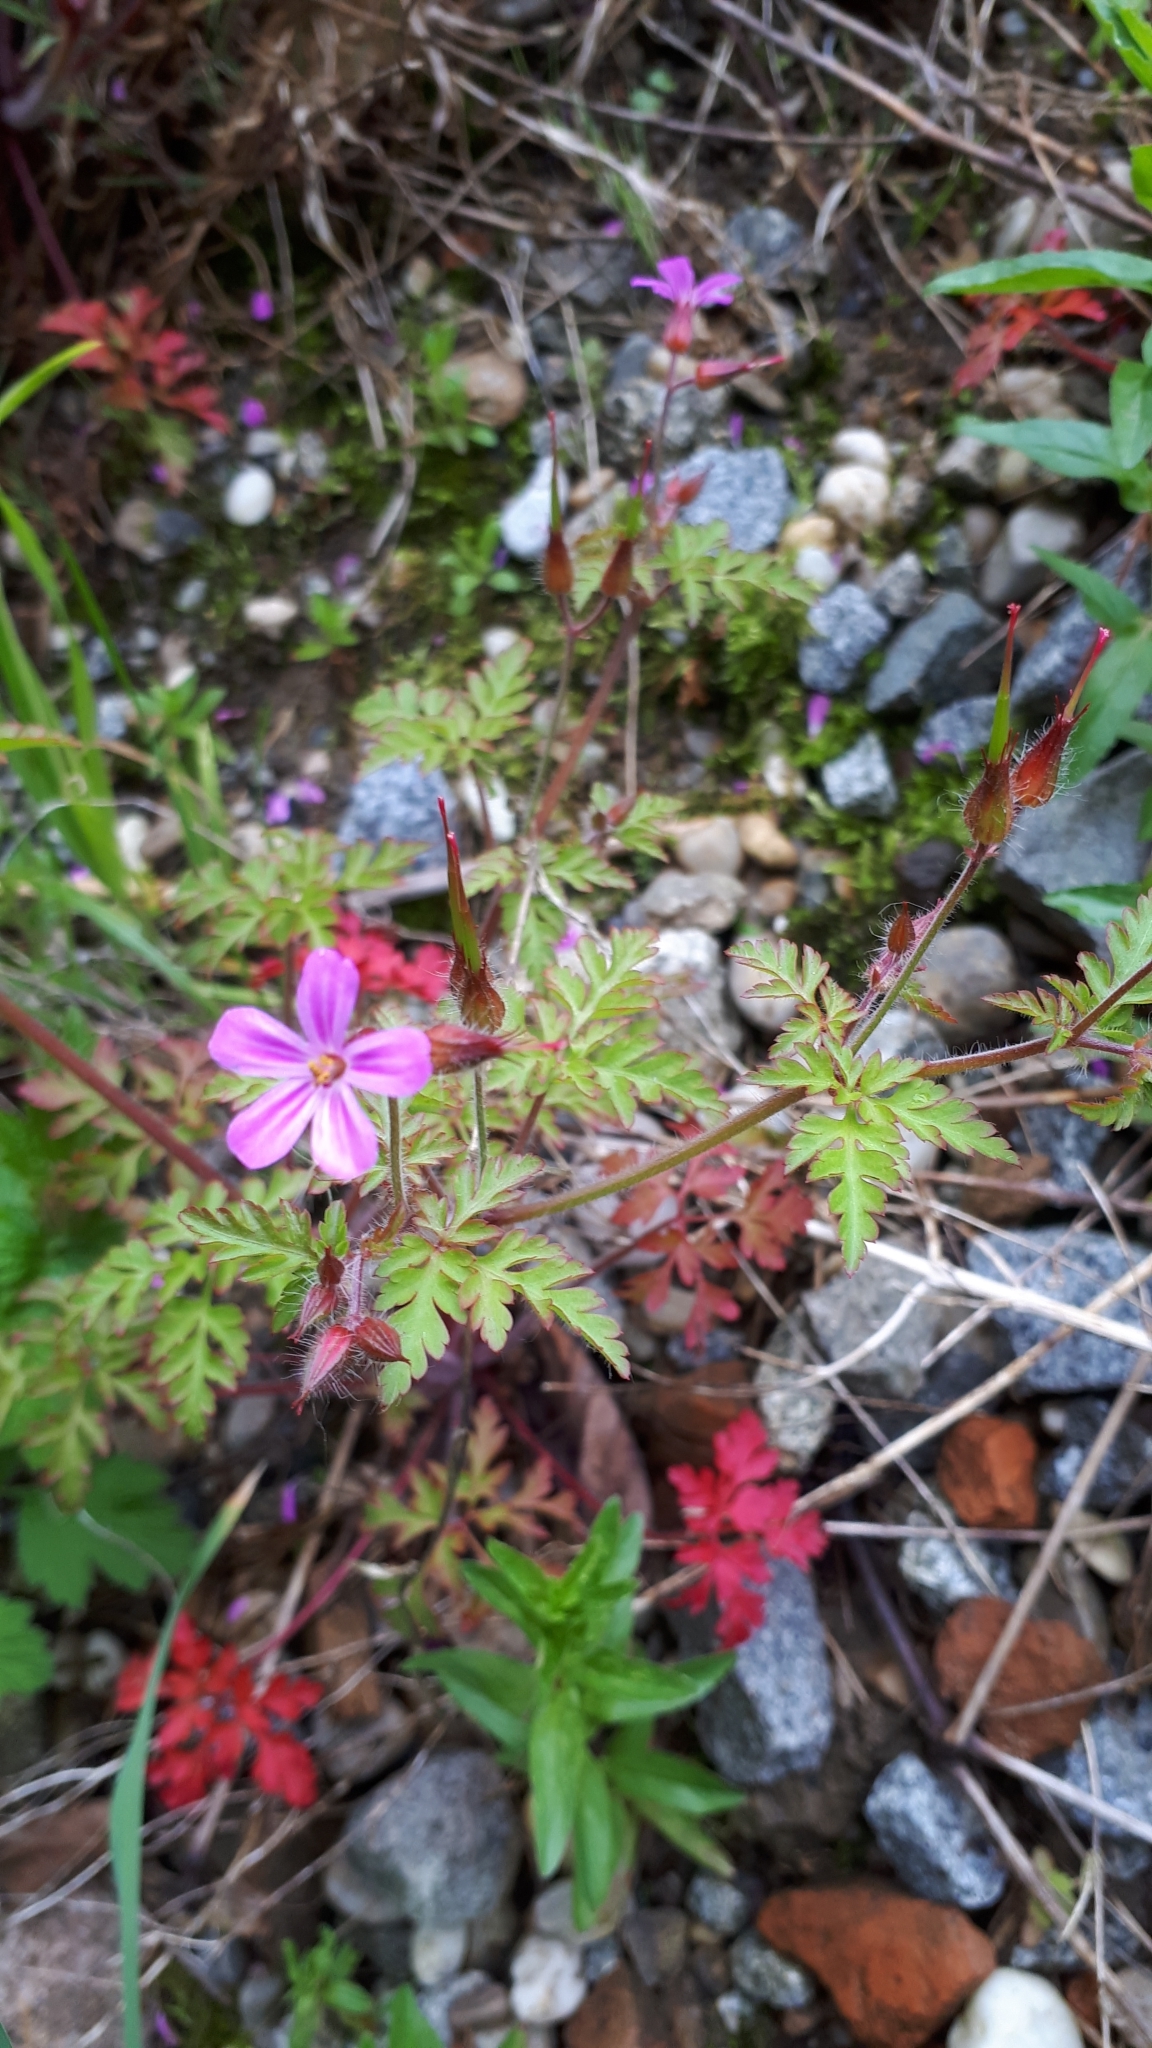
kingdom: Plantae
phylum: Tracheophyta
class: Magnoliopsida
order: Geraniales
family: Geraniaceae
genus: Geranium
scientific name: Geranium robertianum
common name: Herb-robert
